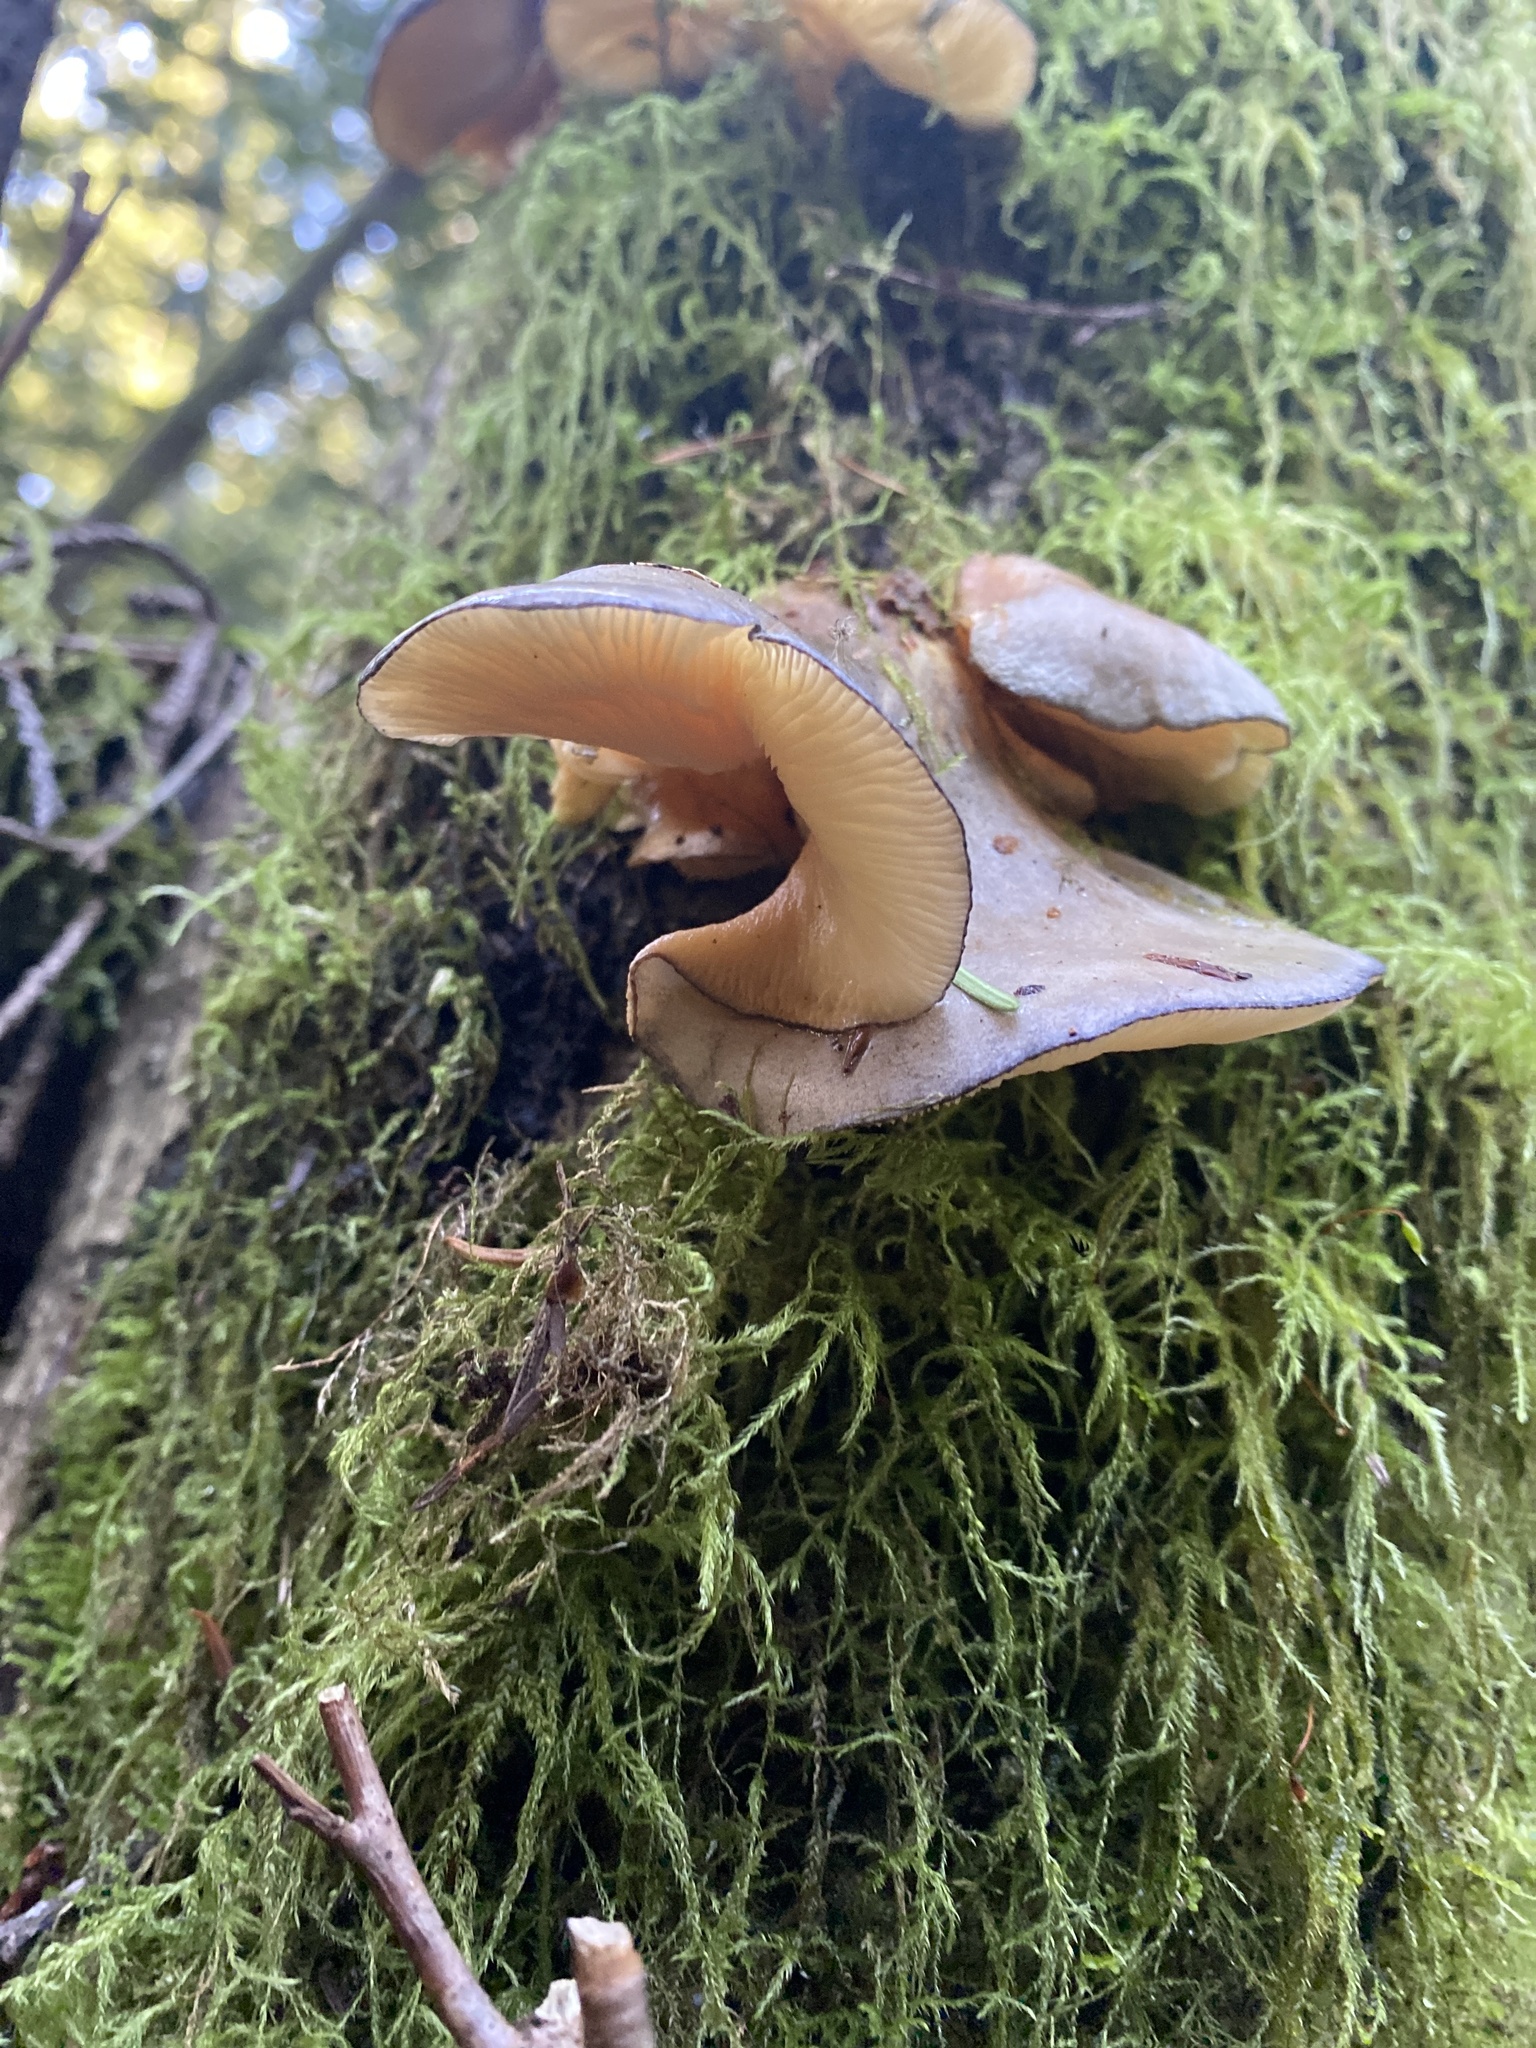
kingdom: Fungi
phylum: Basidiomycota
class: Agaricomycetes
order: Agaricales
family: Sarcomyxaceae
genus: Sarcomyxa
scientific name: Sarcomyxa serotina
